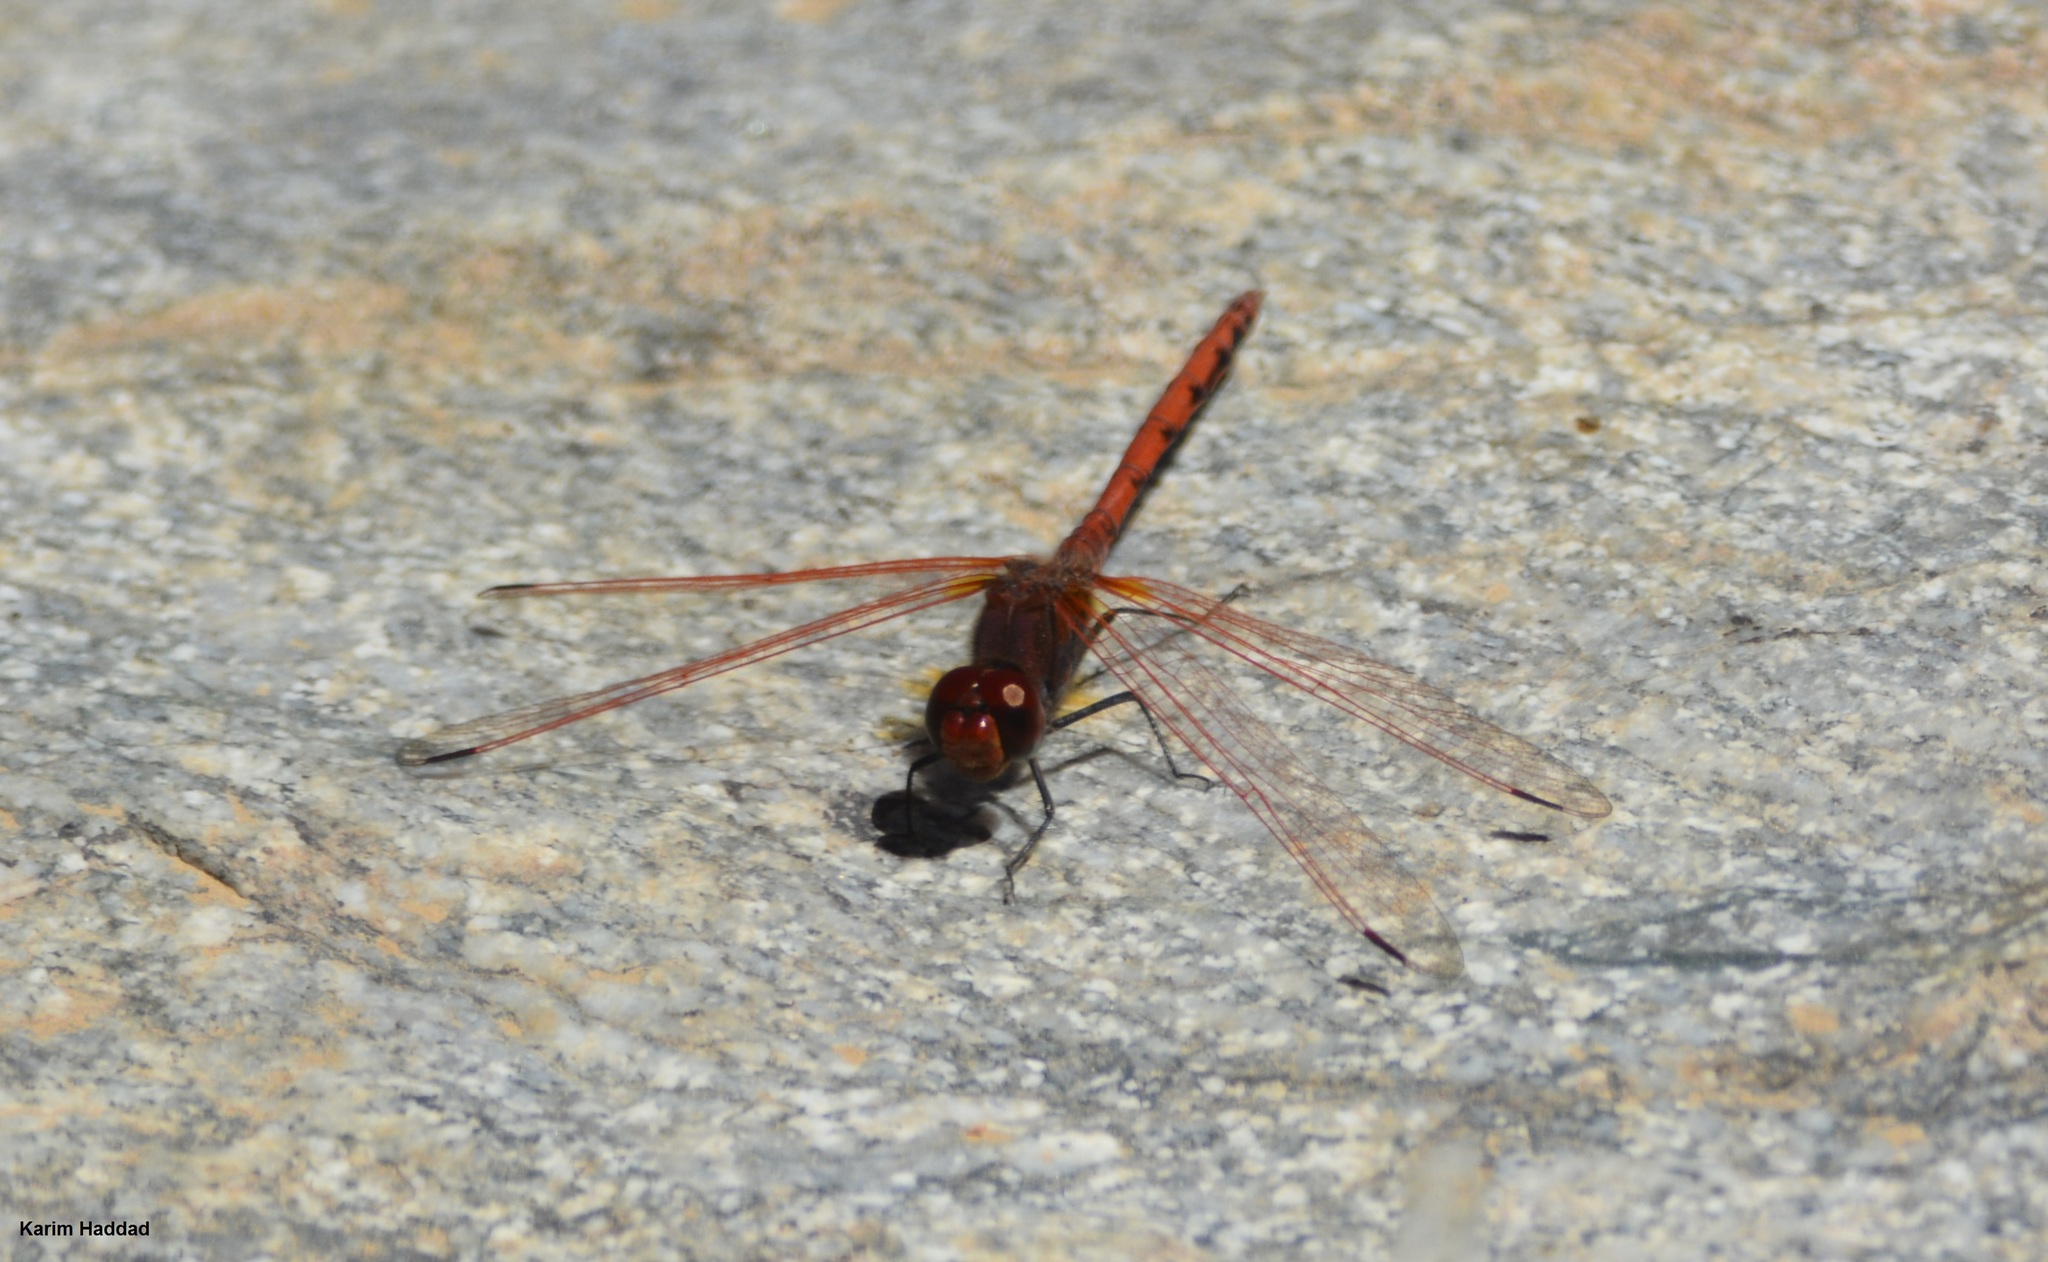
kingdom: Animalia
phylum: Arthropoda
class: Insecta
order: Odonata
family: Libellulidae
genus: Trithemis
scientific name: Trithemis arteriosa
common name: Red-veined dropwing
